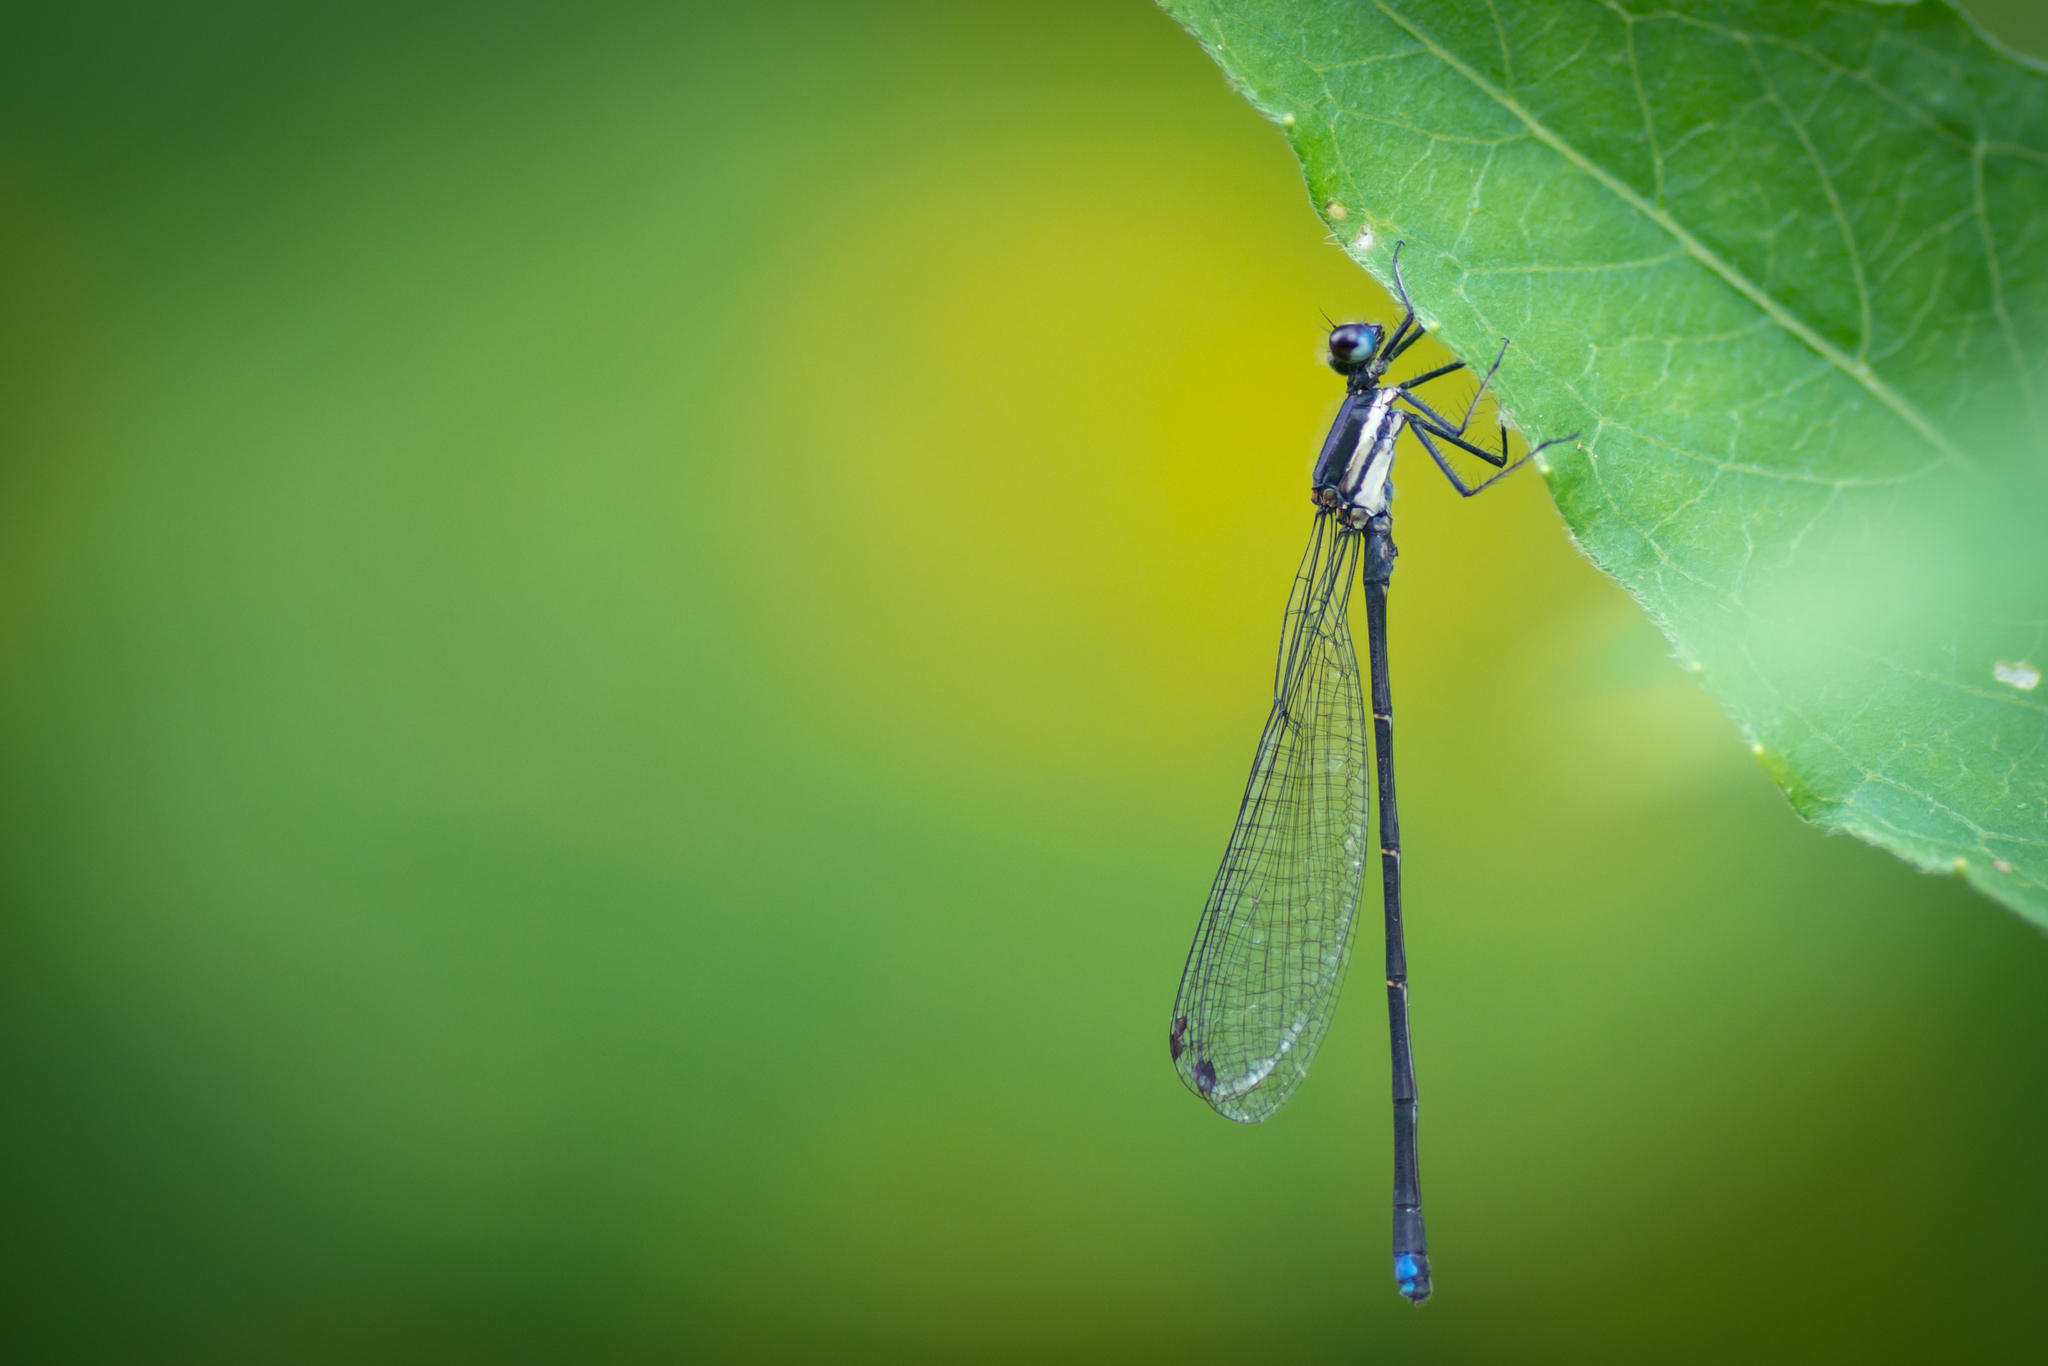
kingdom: Animalia
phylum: Arthropoda
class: Insecta
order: Odonata
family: Coenagrionidae
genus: Argia
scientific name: Argia tibialis
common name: Blue-tipped dancer
